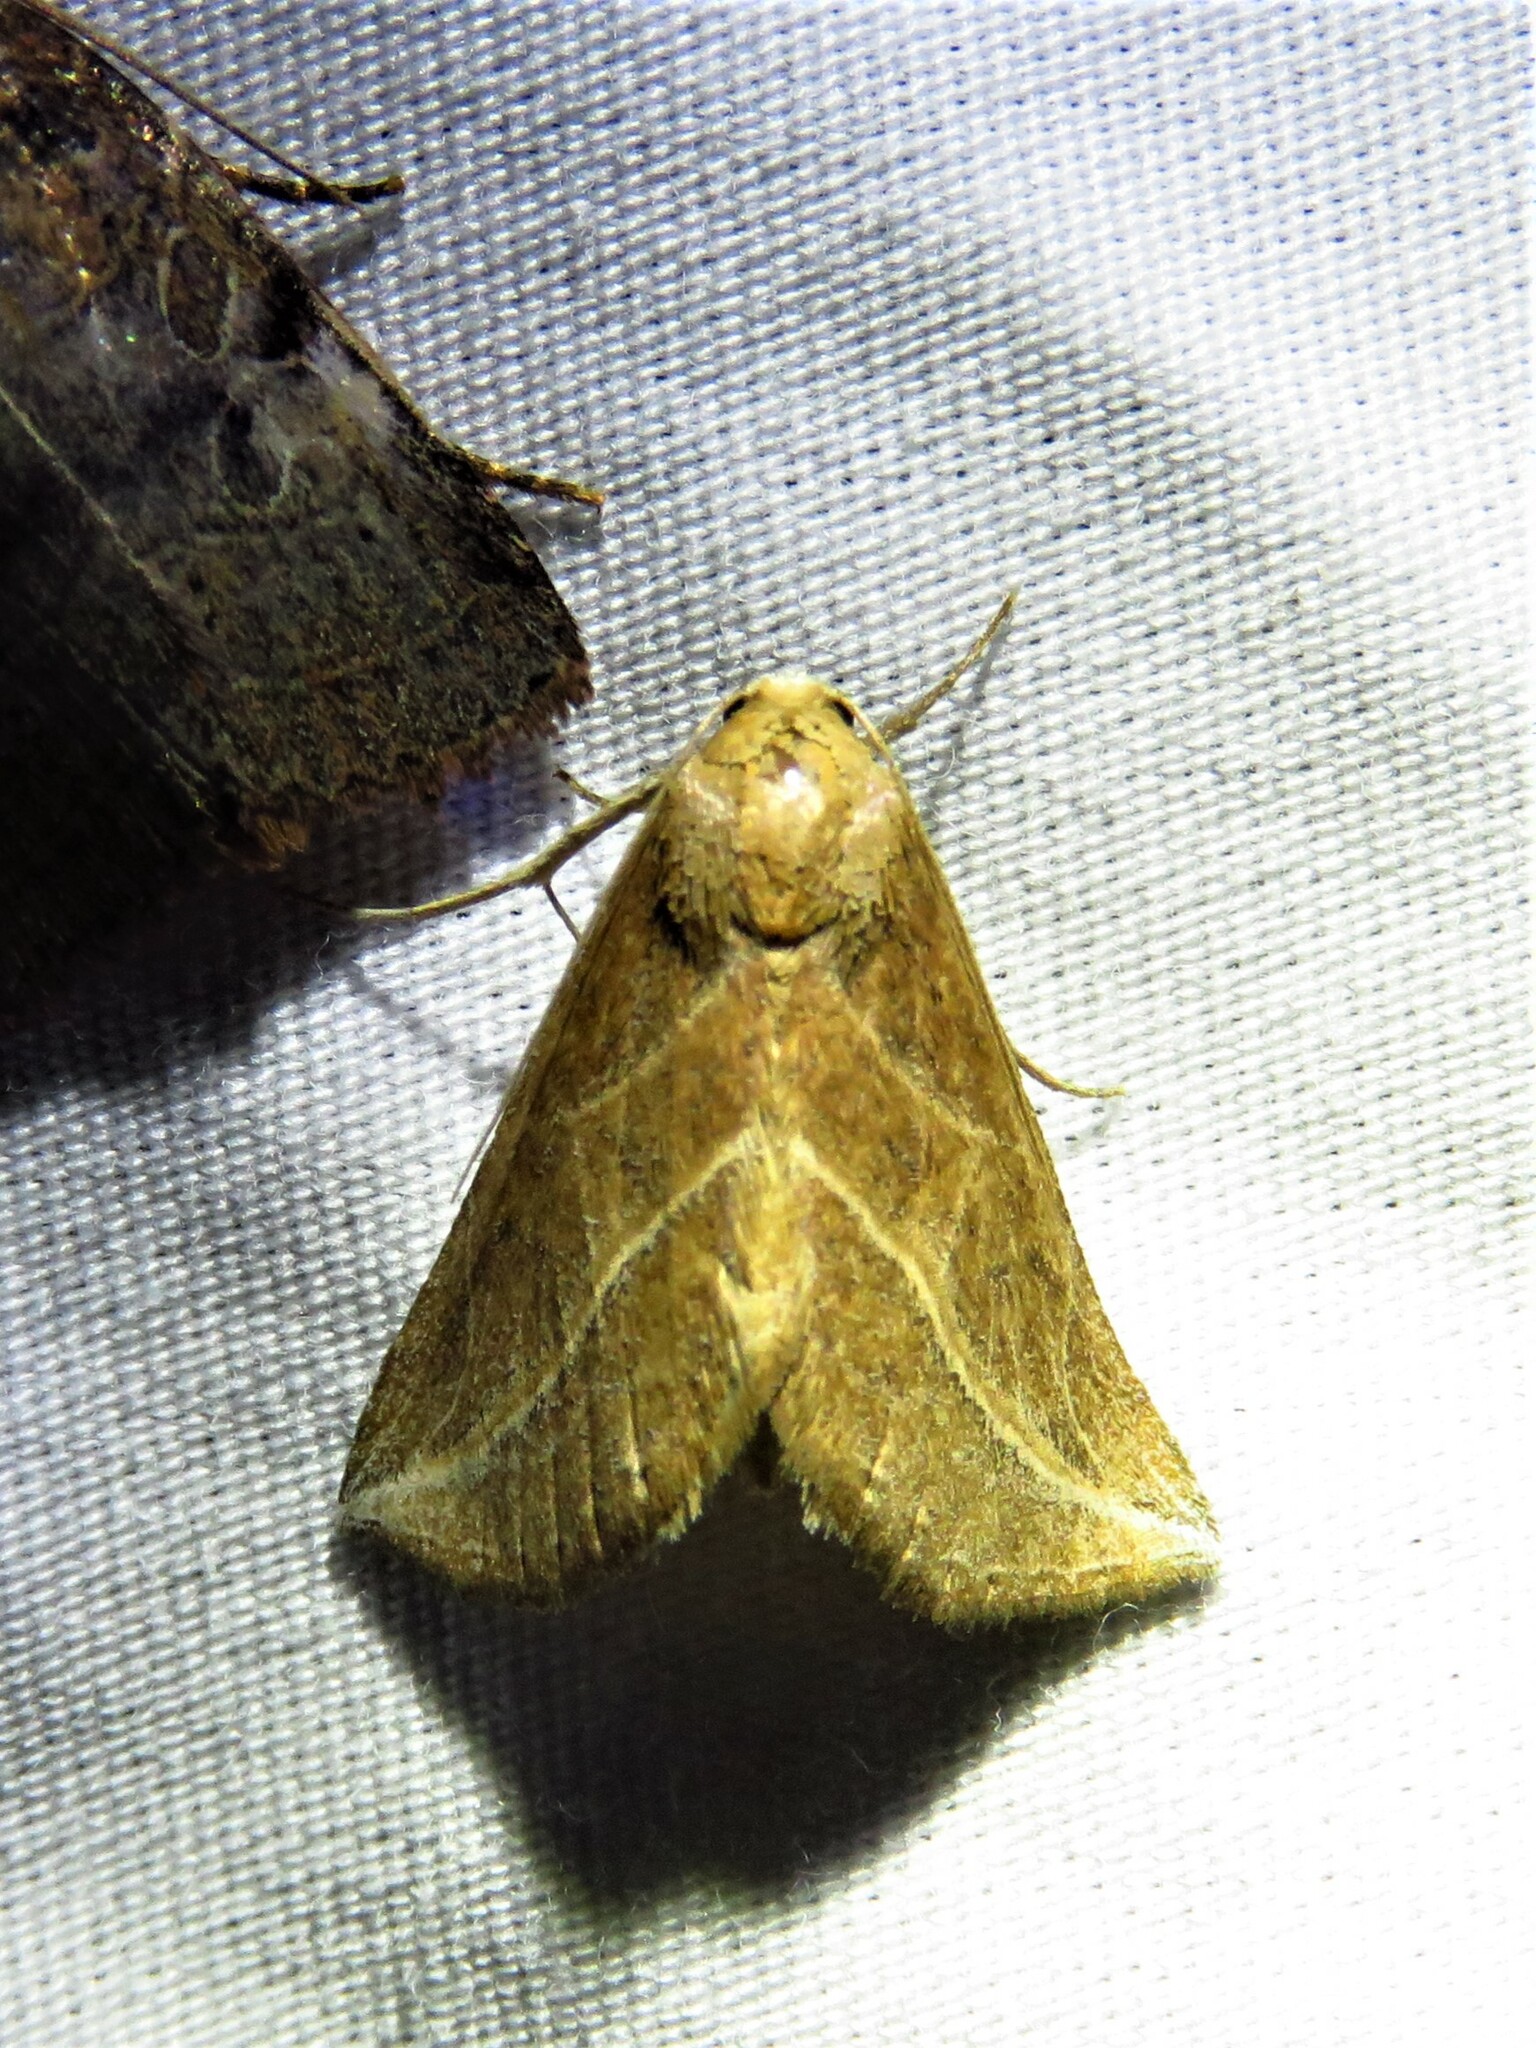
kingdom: Animalia
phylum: Arthropoda
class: Insecta
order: Lepidoptera
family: Erebidae
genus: Phyprosopus
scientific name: Phyprosopus callitrichoides
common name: Curved-lined owlet
